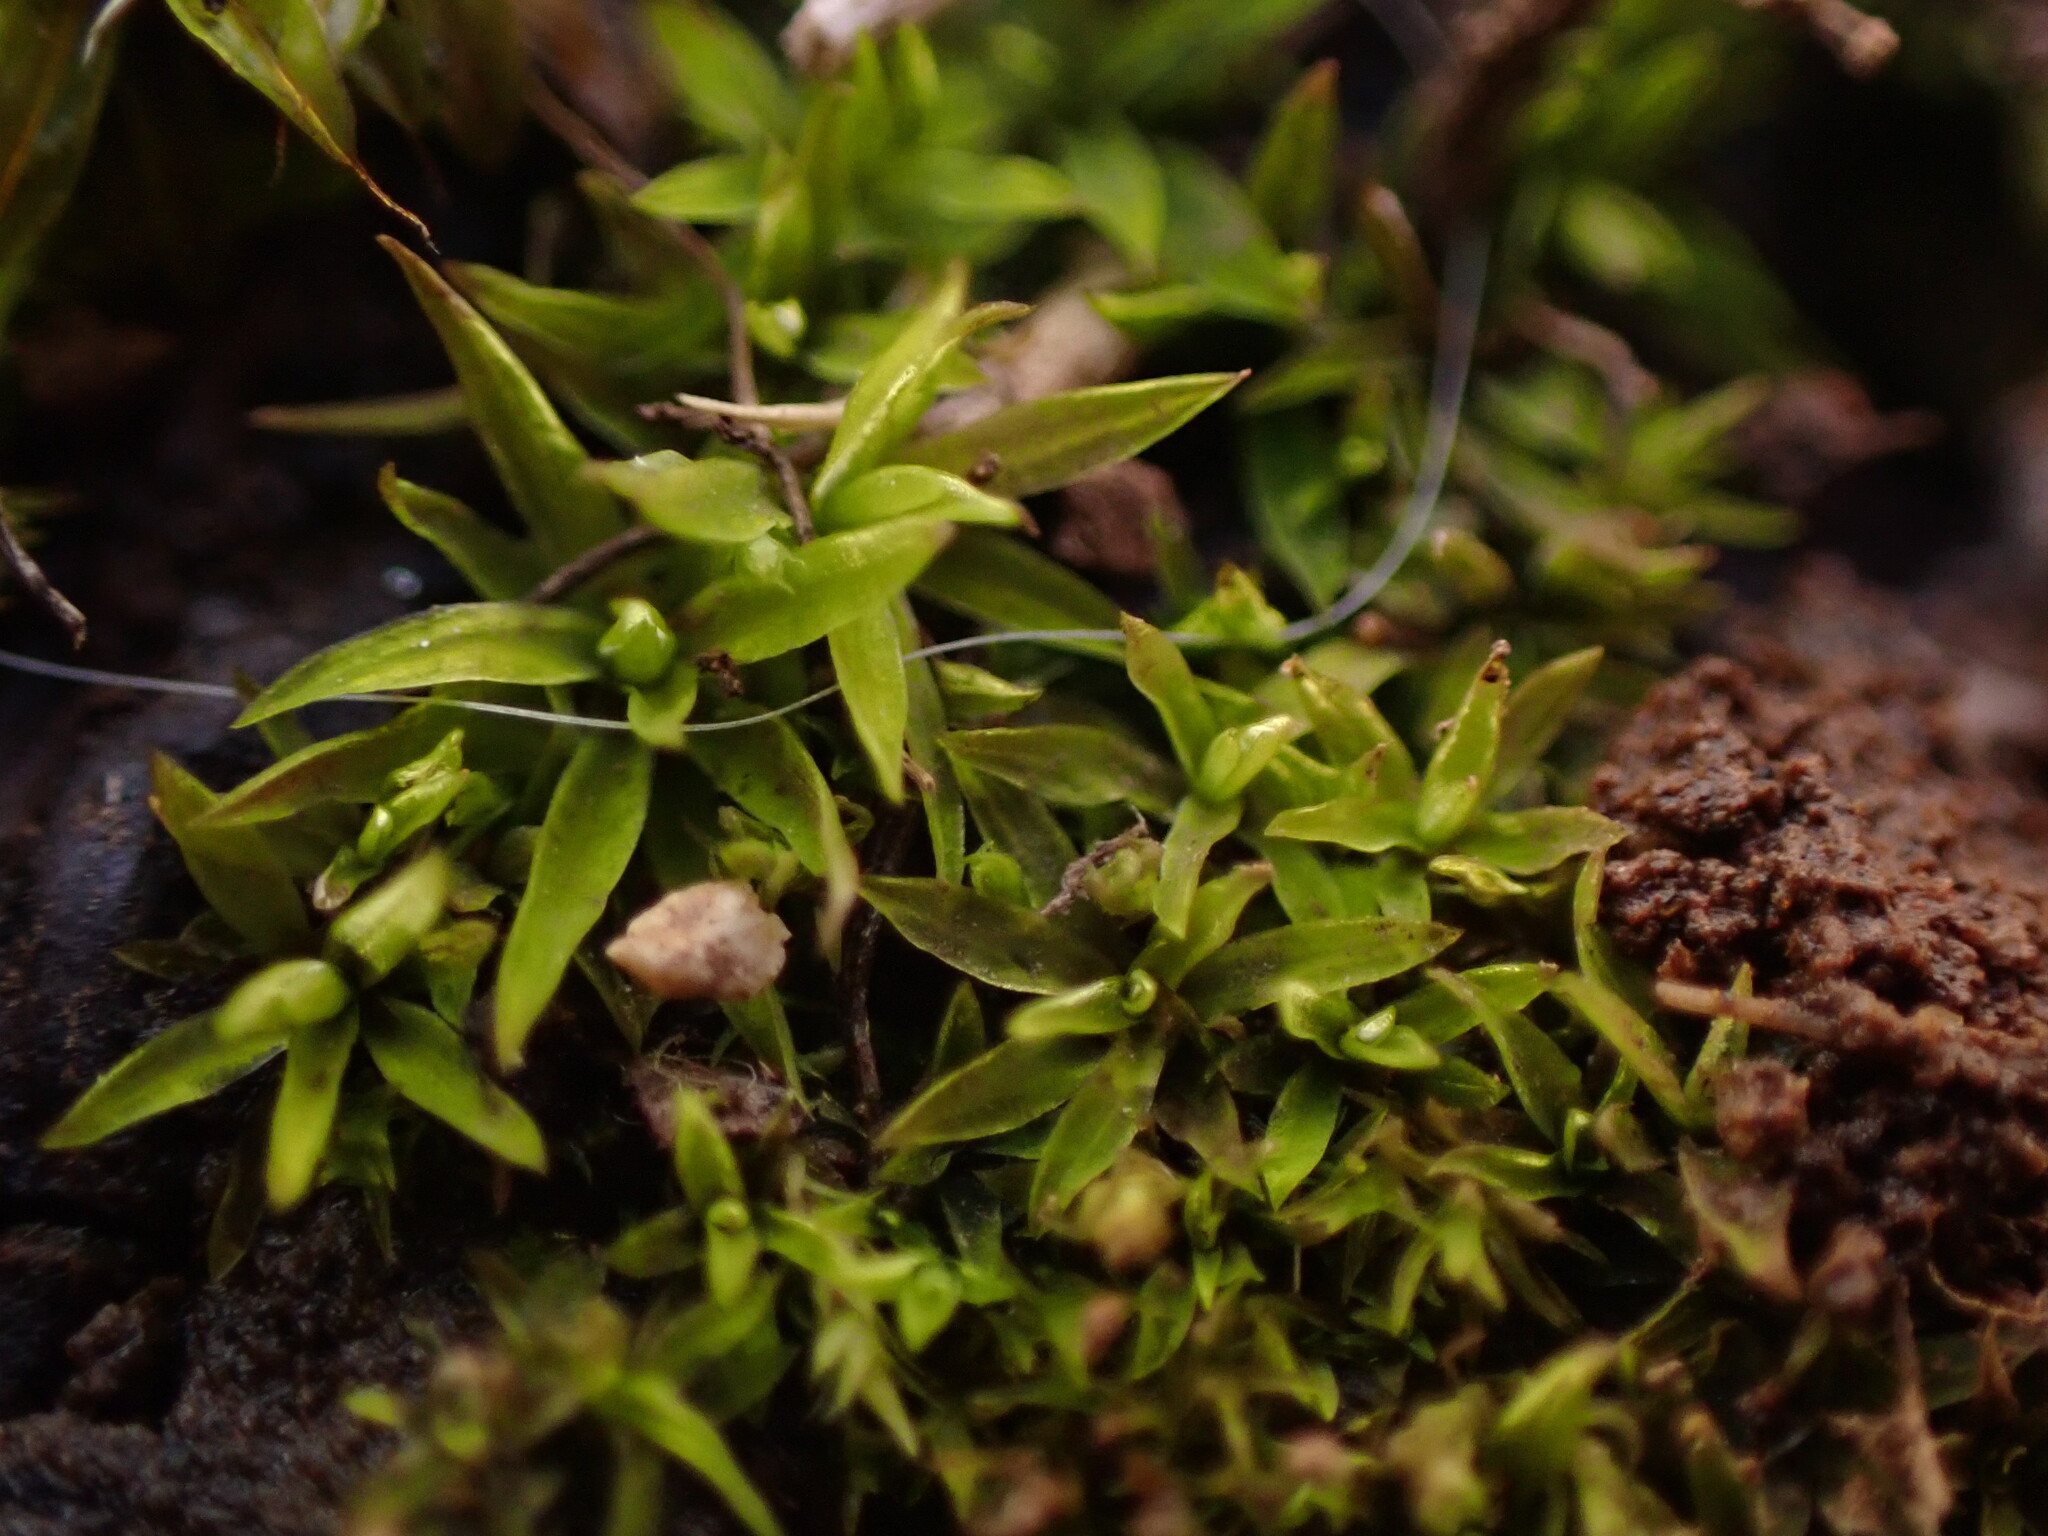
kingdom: Plantae
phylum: Bryophyta
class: Bryopsida
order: Scouleriales
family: Timmiellaceae
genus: Timmiella
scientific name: Timmiella crassinervis
